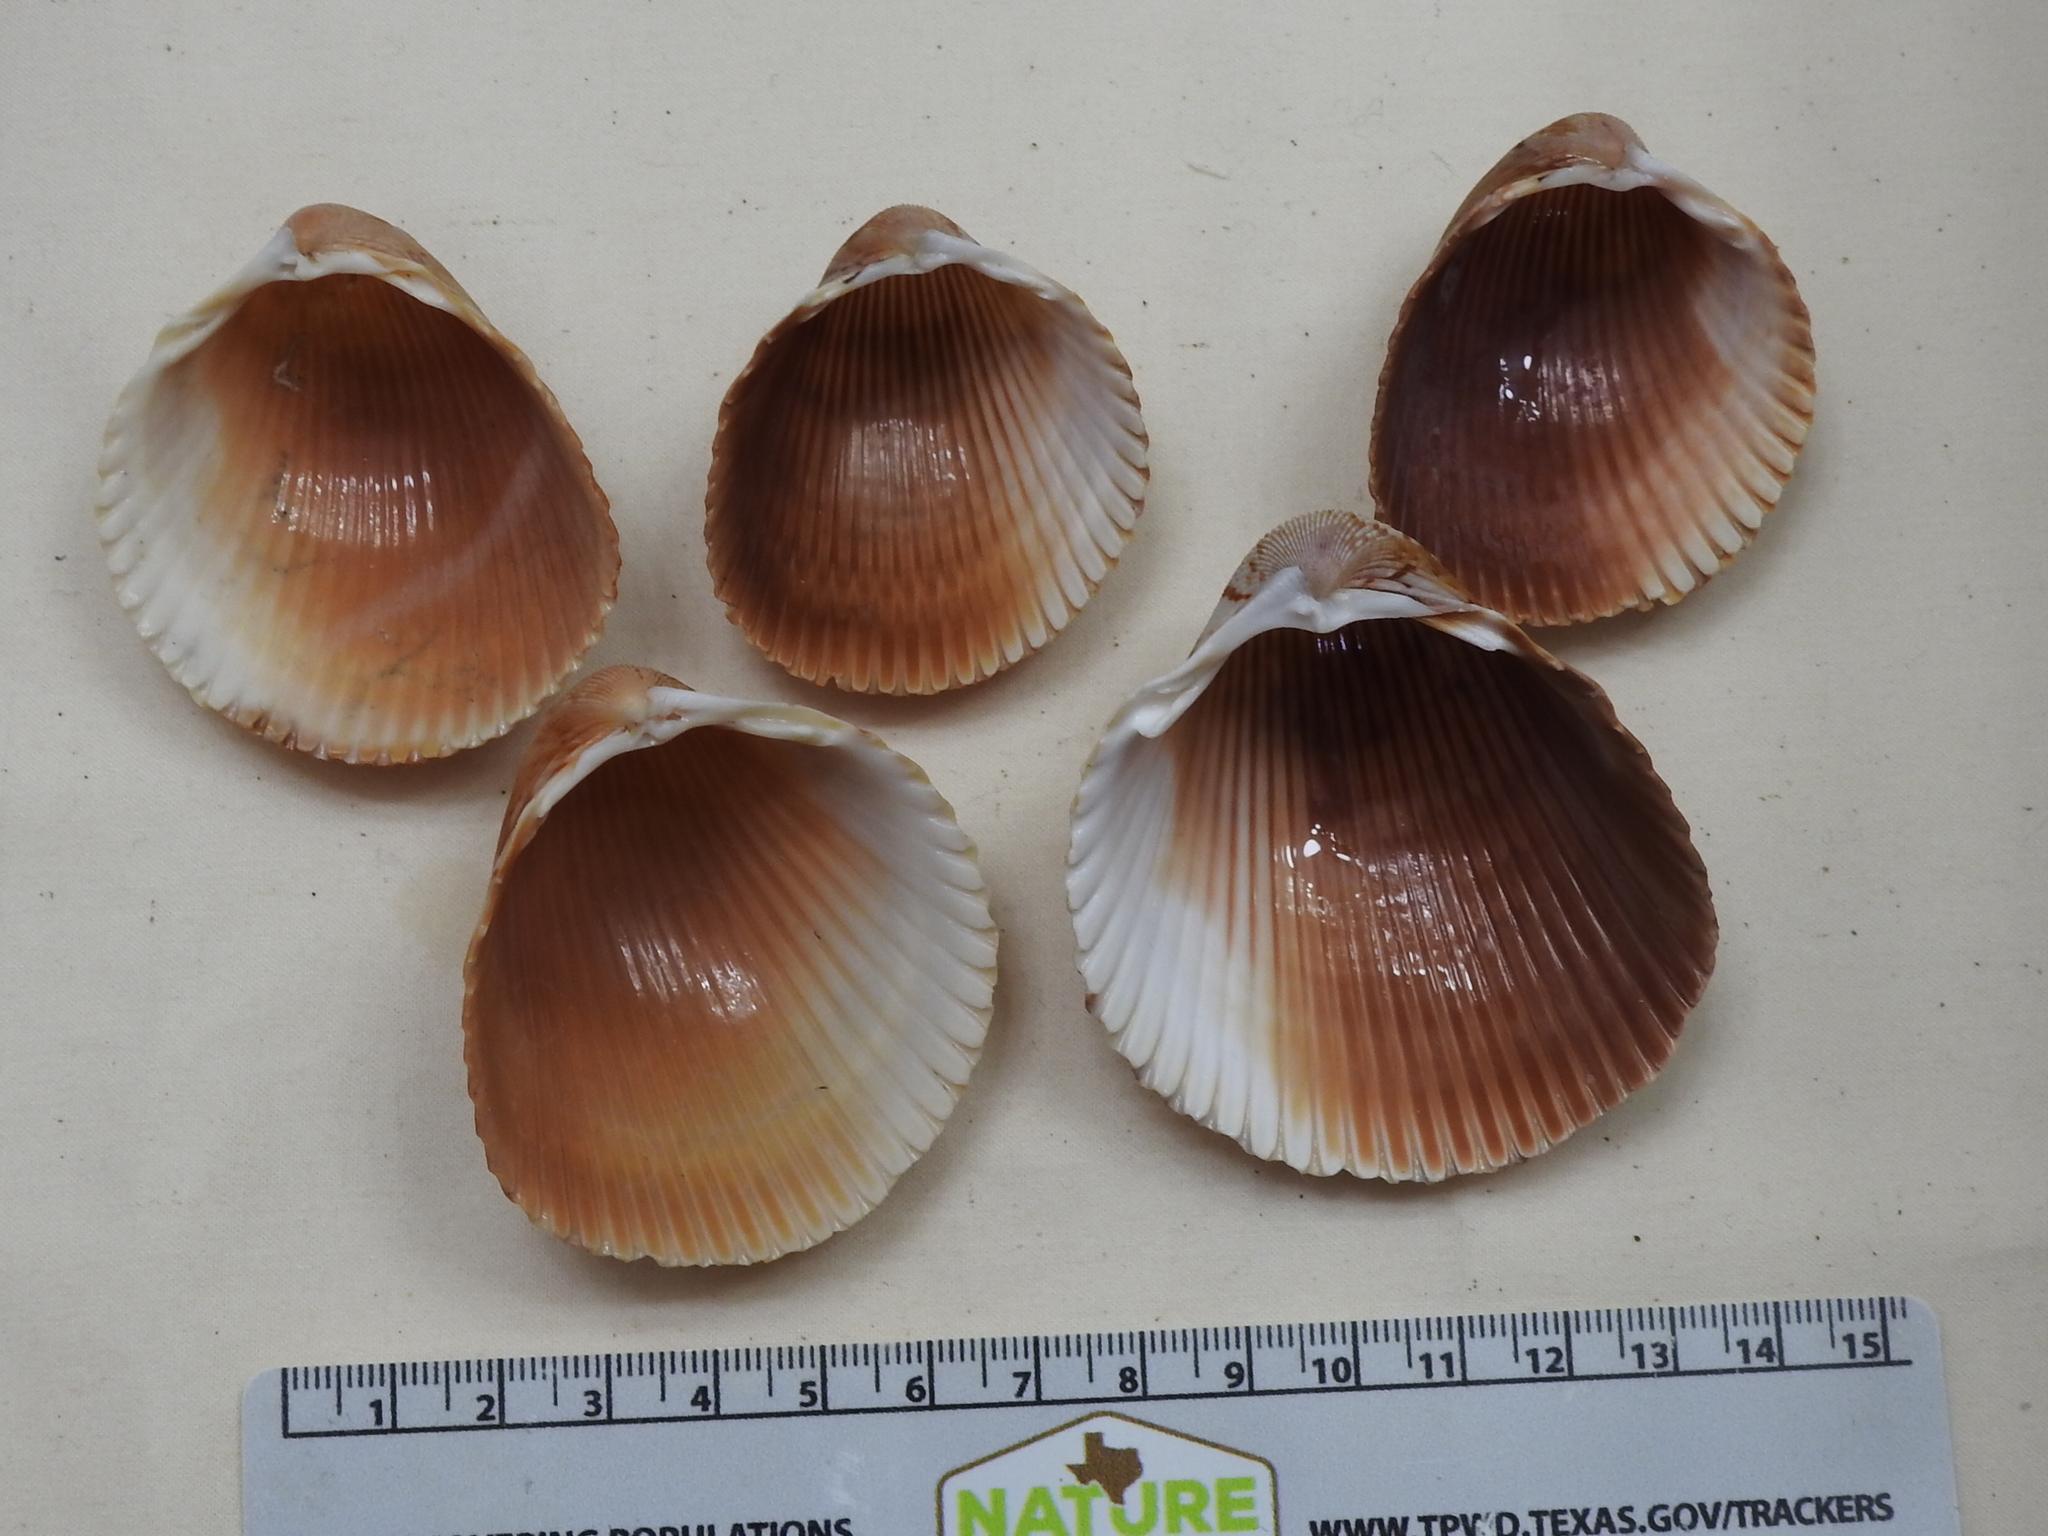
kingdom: Animalia
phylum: Mollusca
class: Bivalvia
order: Cardiida
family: Cardiidae
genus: Dinocardium
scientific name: Dinocardium robustum
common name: Atlantic giant cockle
